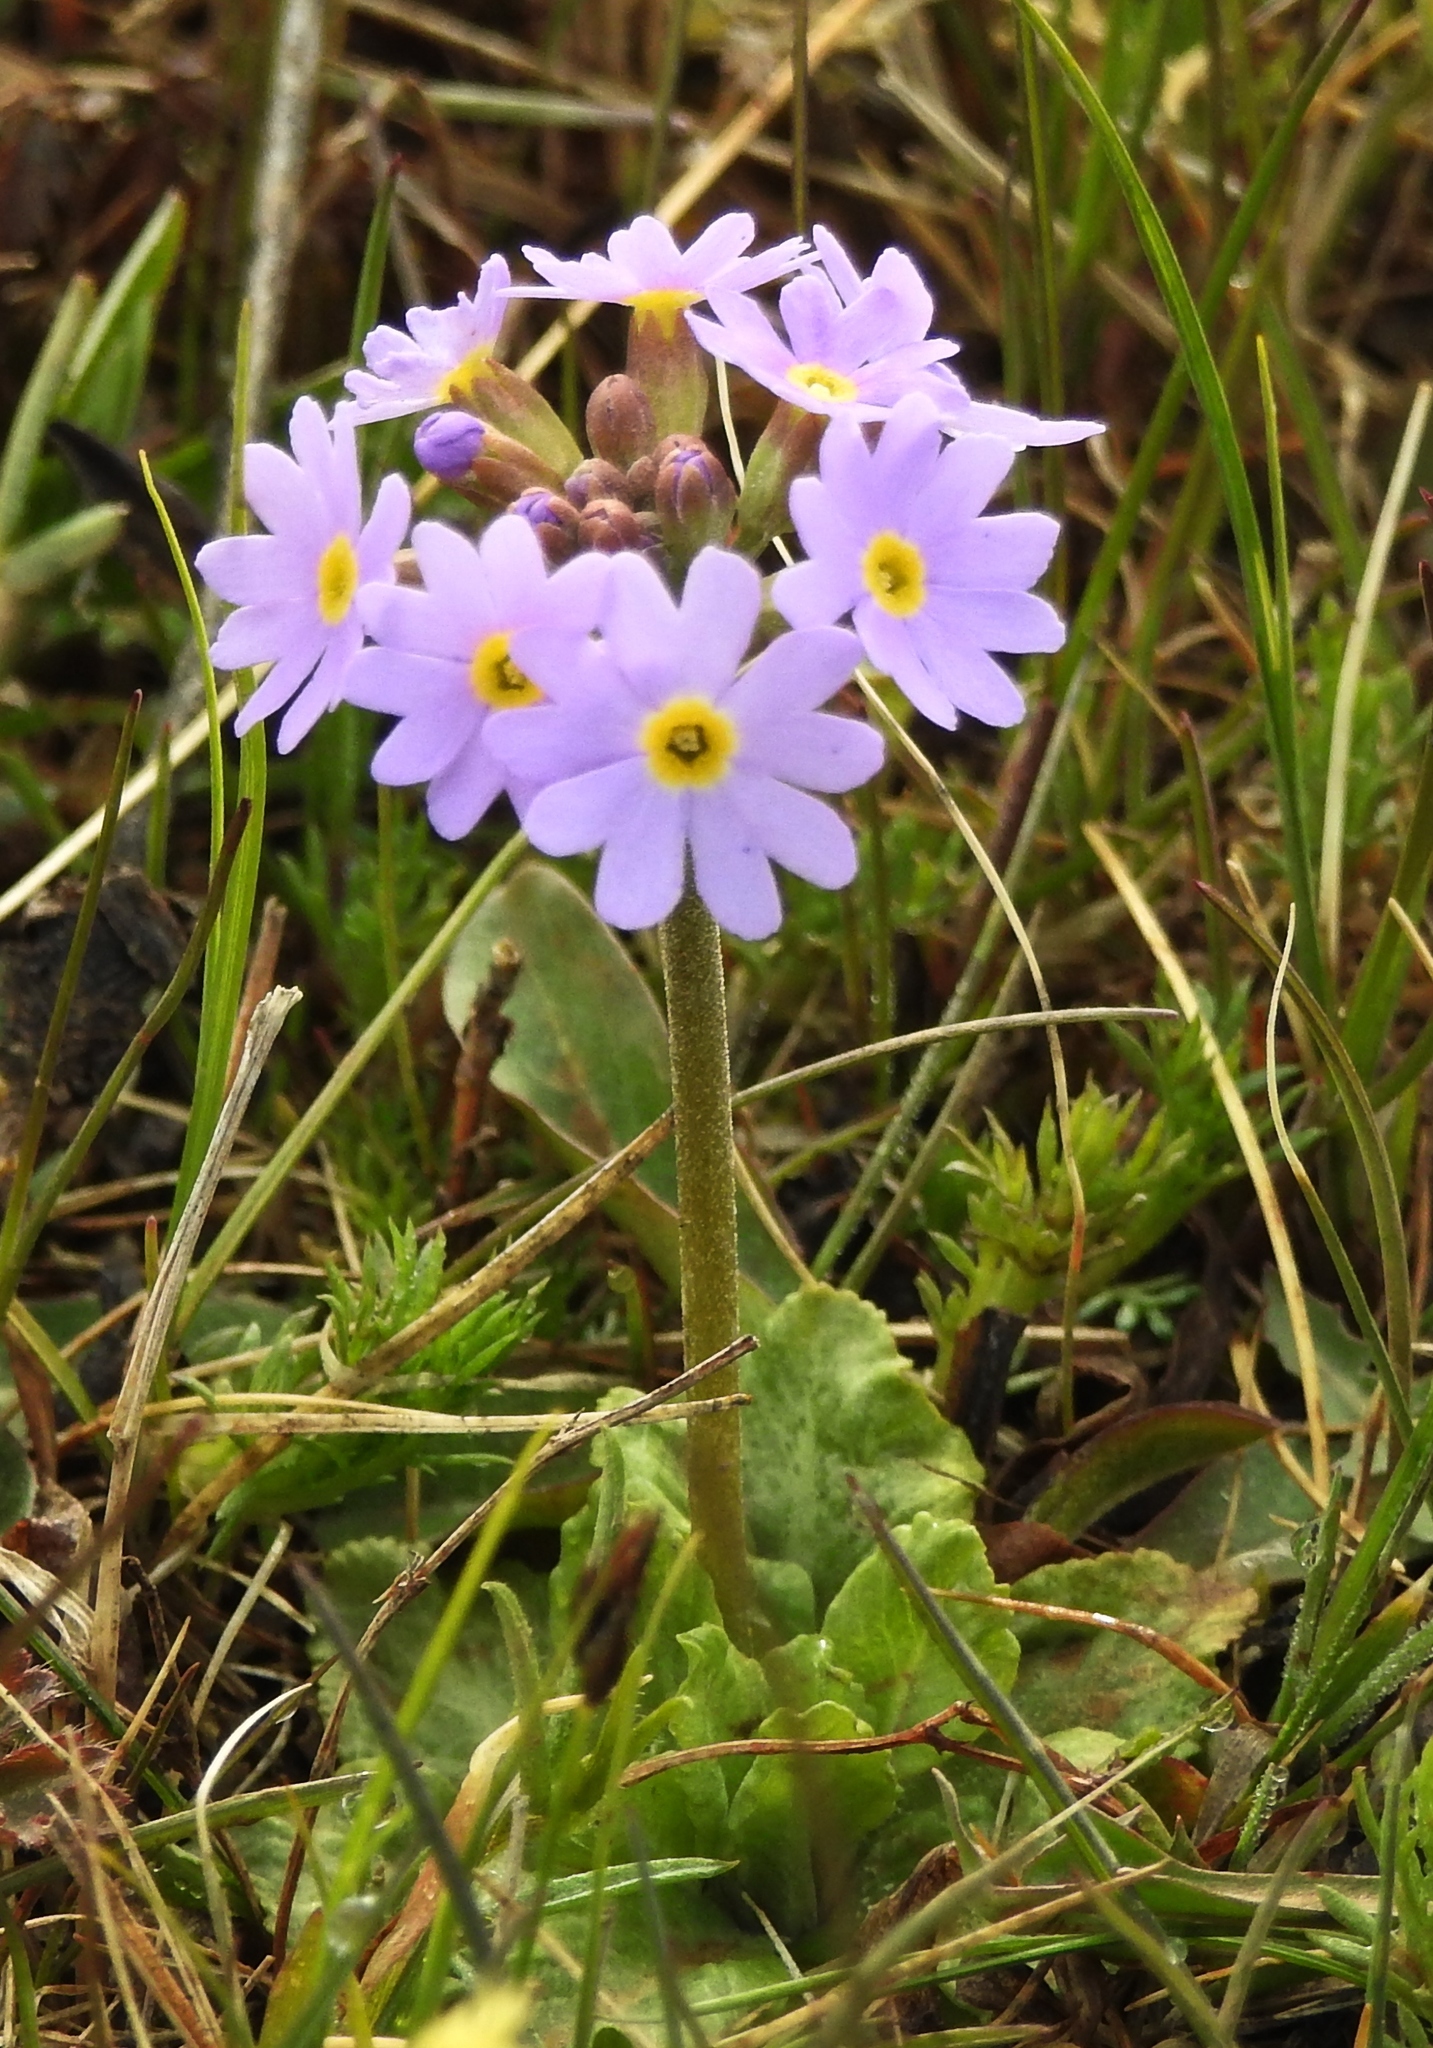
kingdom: Plantae
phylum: Tracheophyta
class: Magnoliopsida
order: Ericales
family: Primulaceae
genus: Primula
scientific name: Primula farinosa
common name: Bird's-eye primrose
